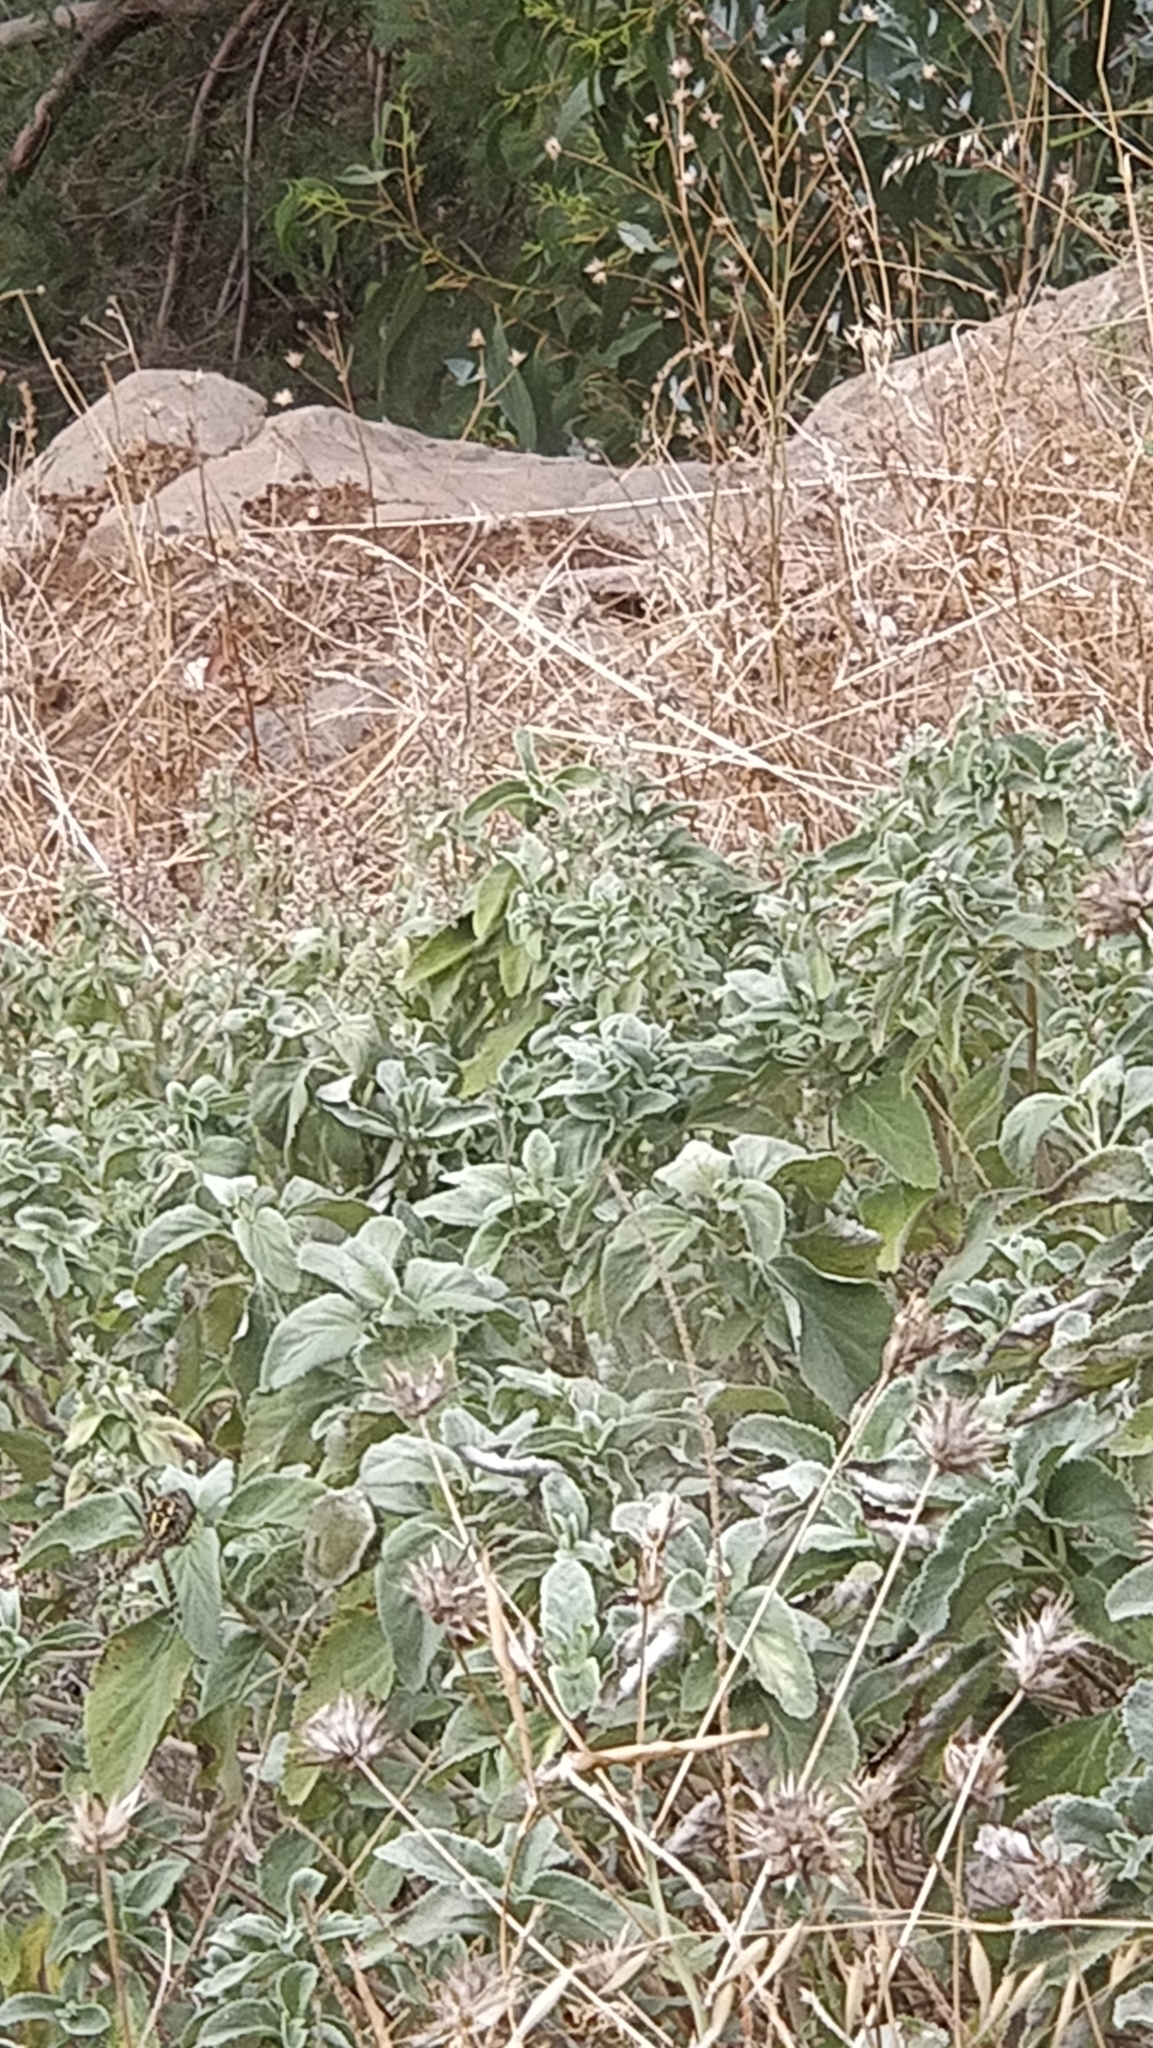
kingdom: Plantae
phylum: Tracheophyta
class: Magnoliopsida
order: Lamiales
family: Lamiaceae
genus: Teucrium
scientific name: Teucrium betonicum
